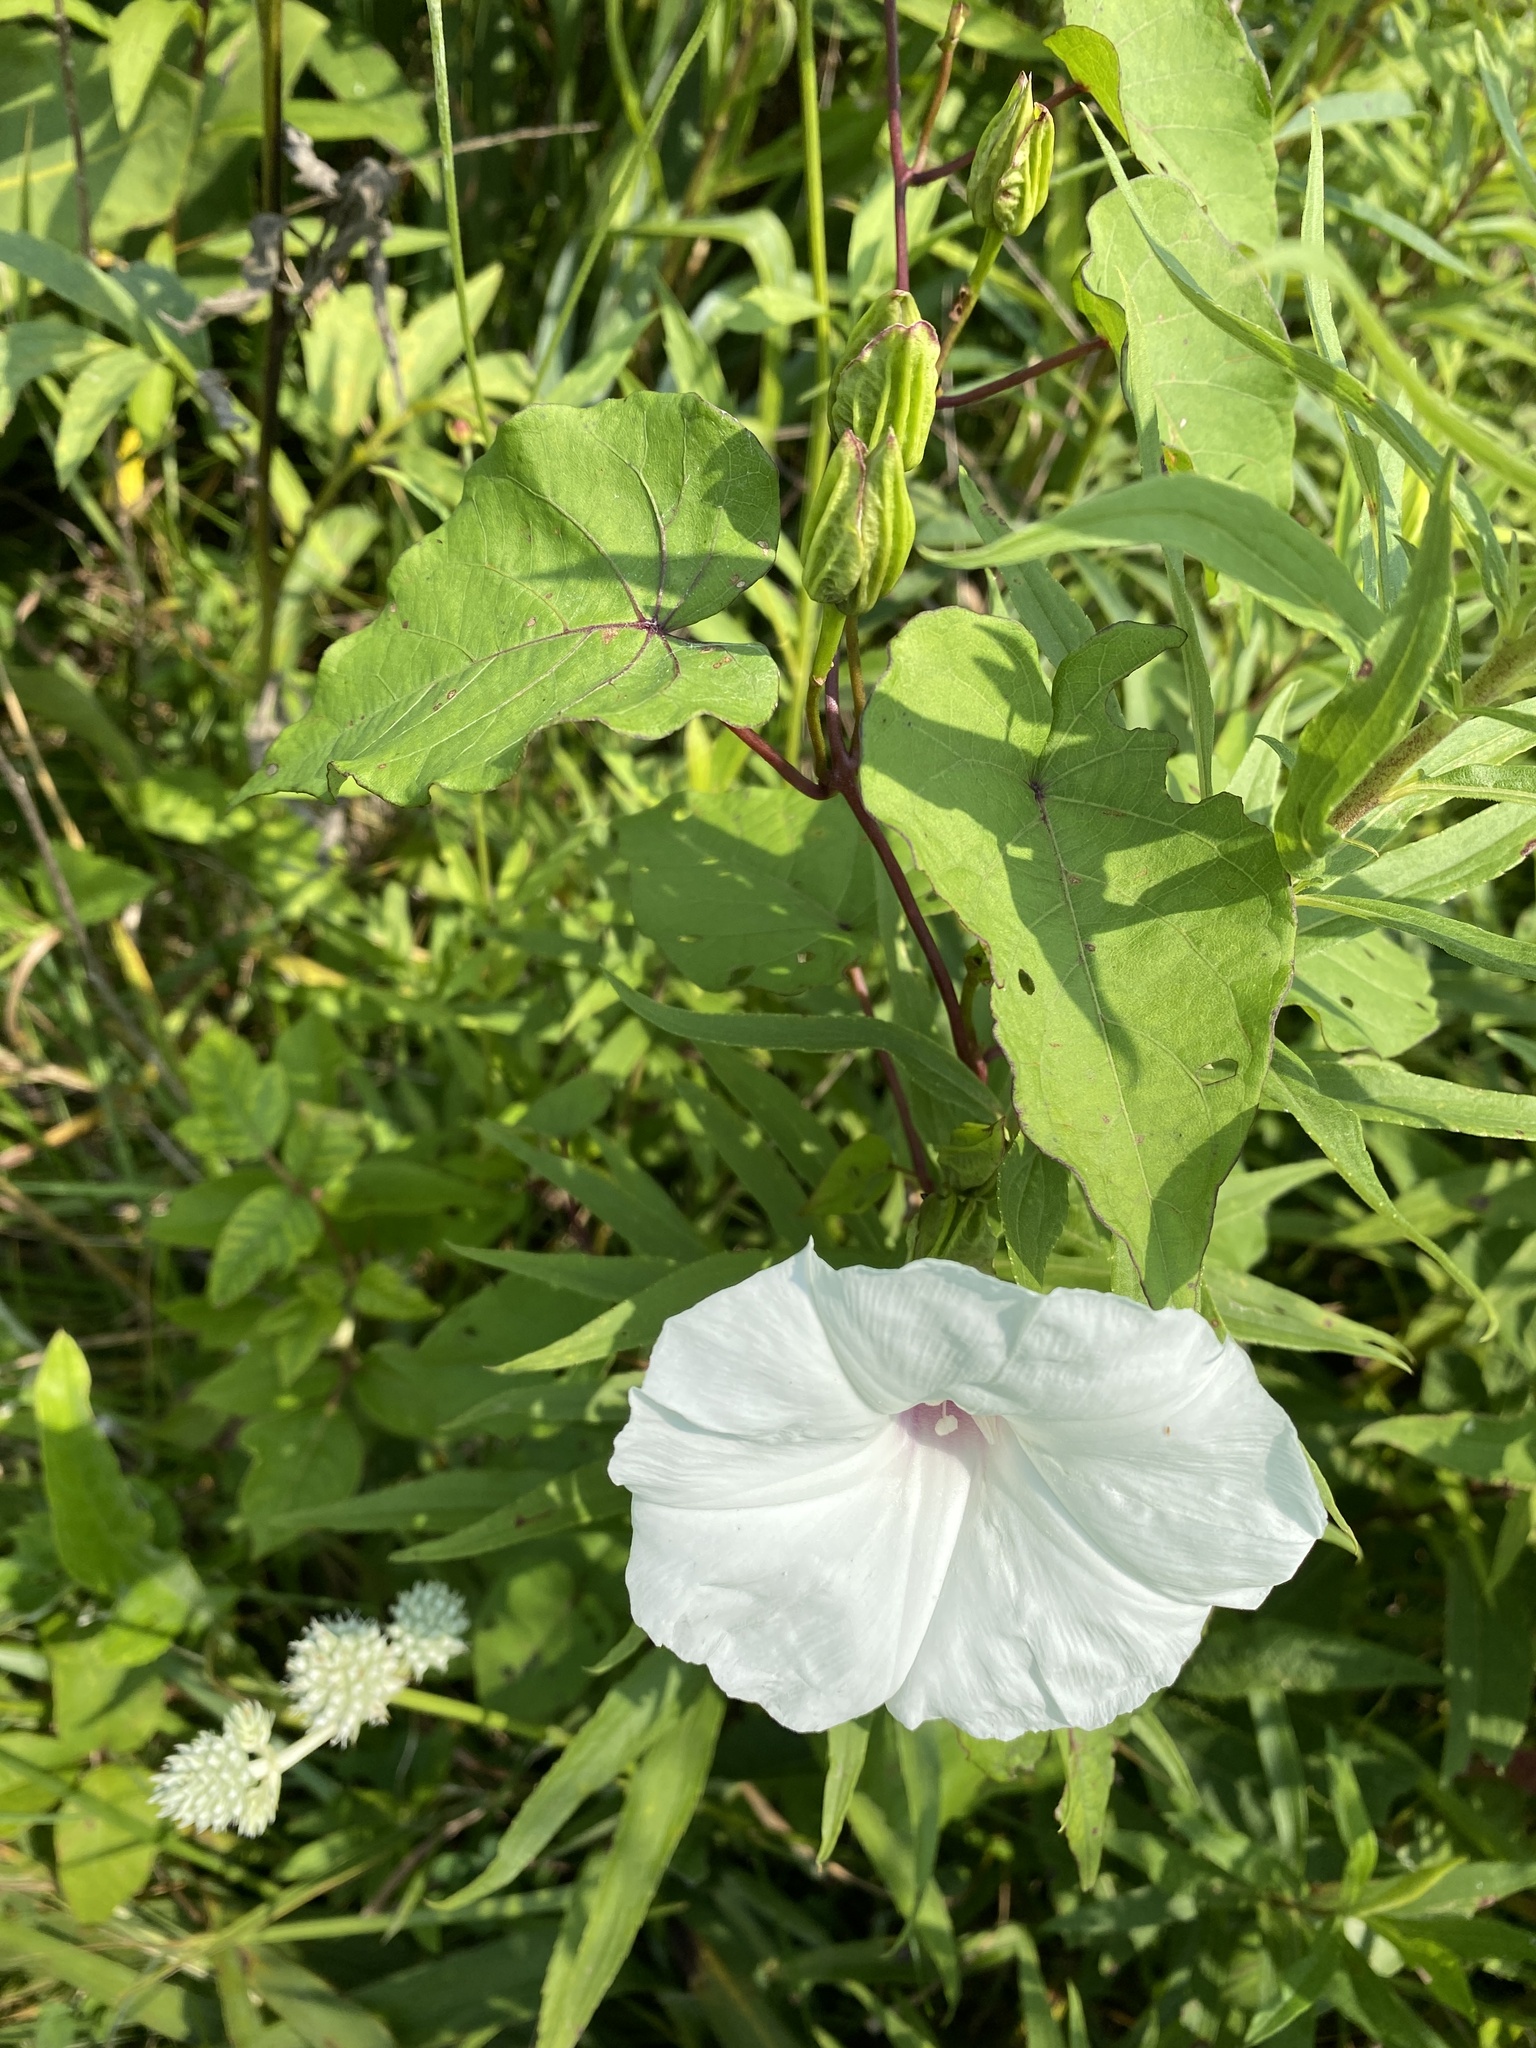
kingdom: Plantae
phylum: Tracheophyta
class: Magnoliopsida
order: Solanales
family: Convolvulaceae
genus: Ipomoea
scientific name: Ipomoea pandurata
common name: Man-of-the-earth
